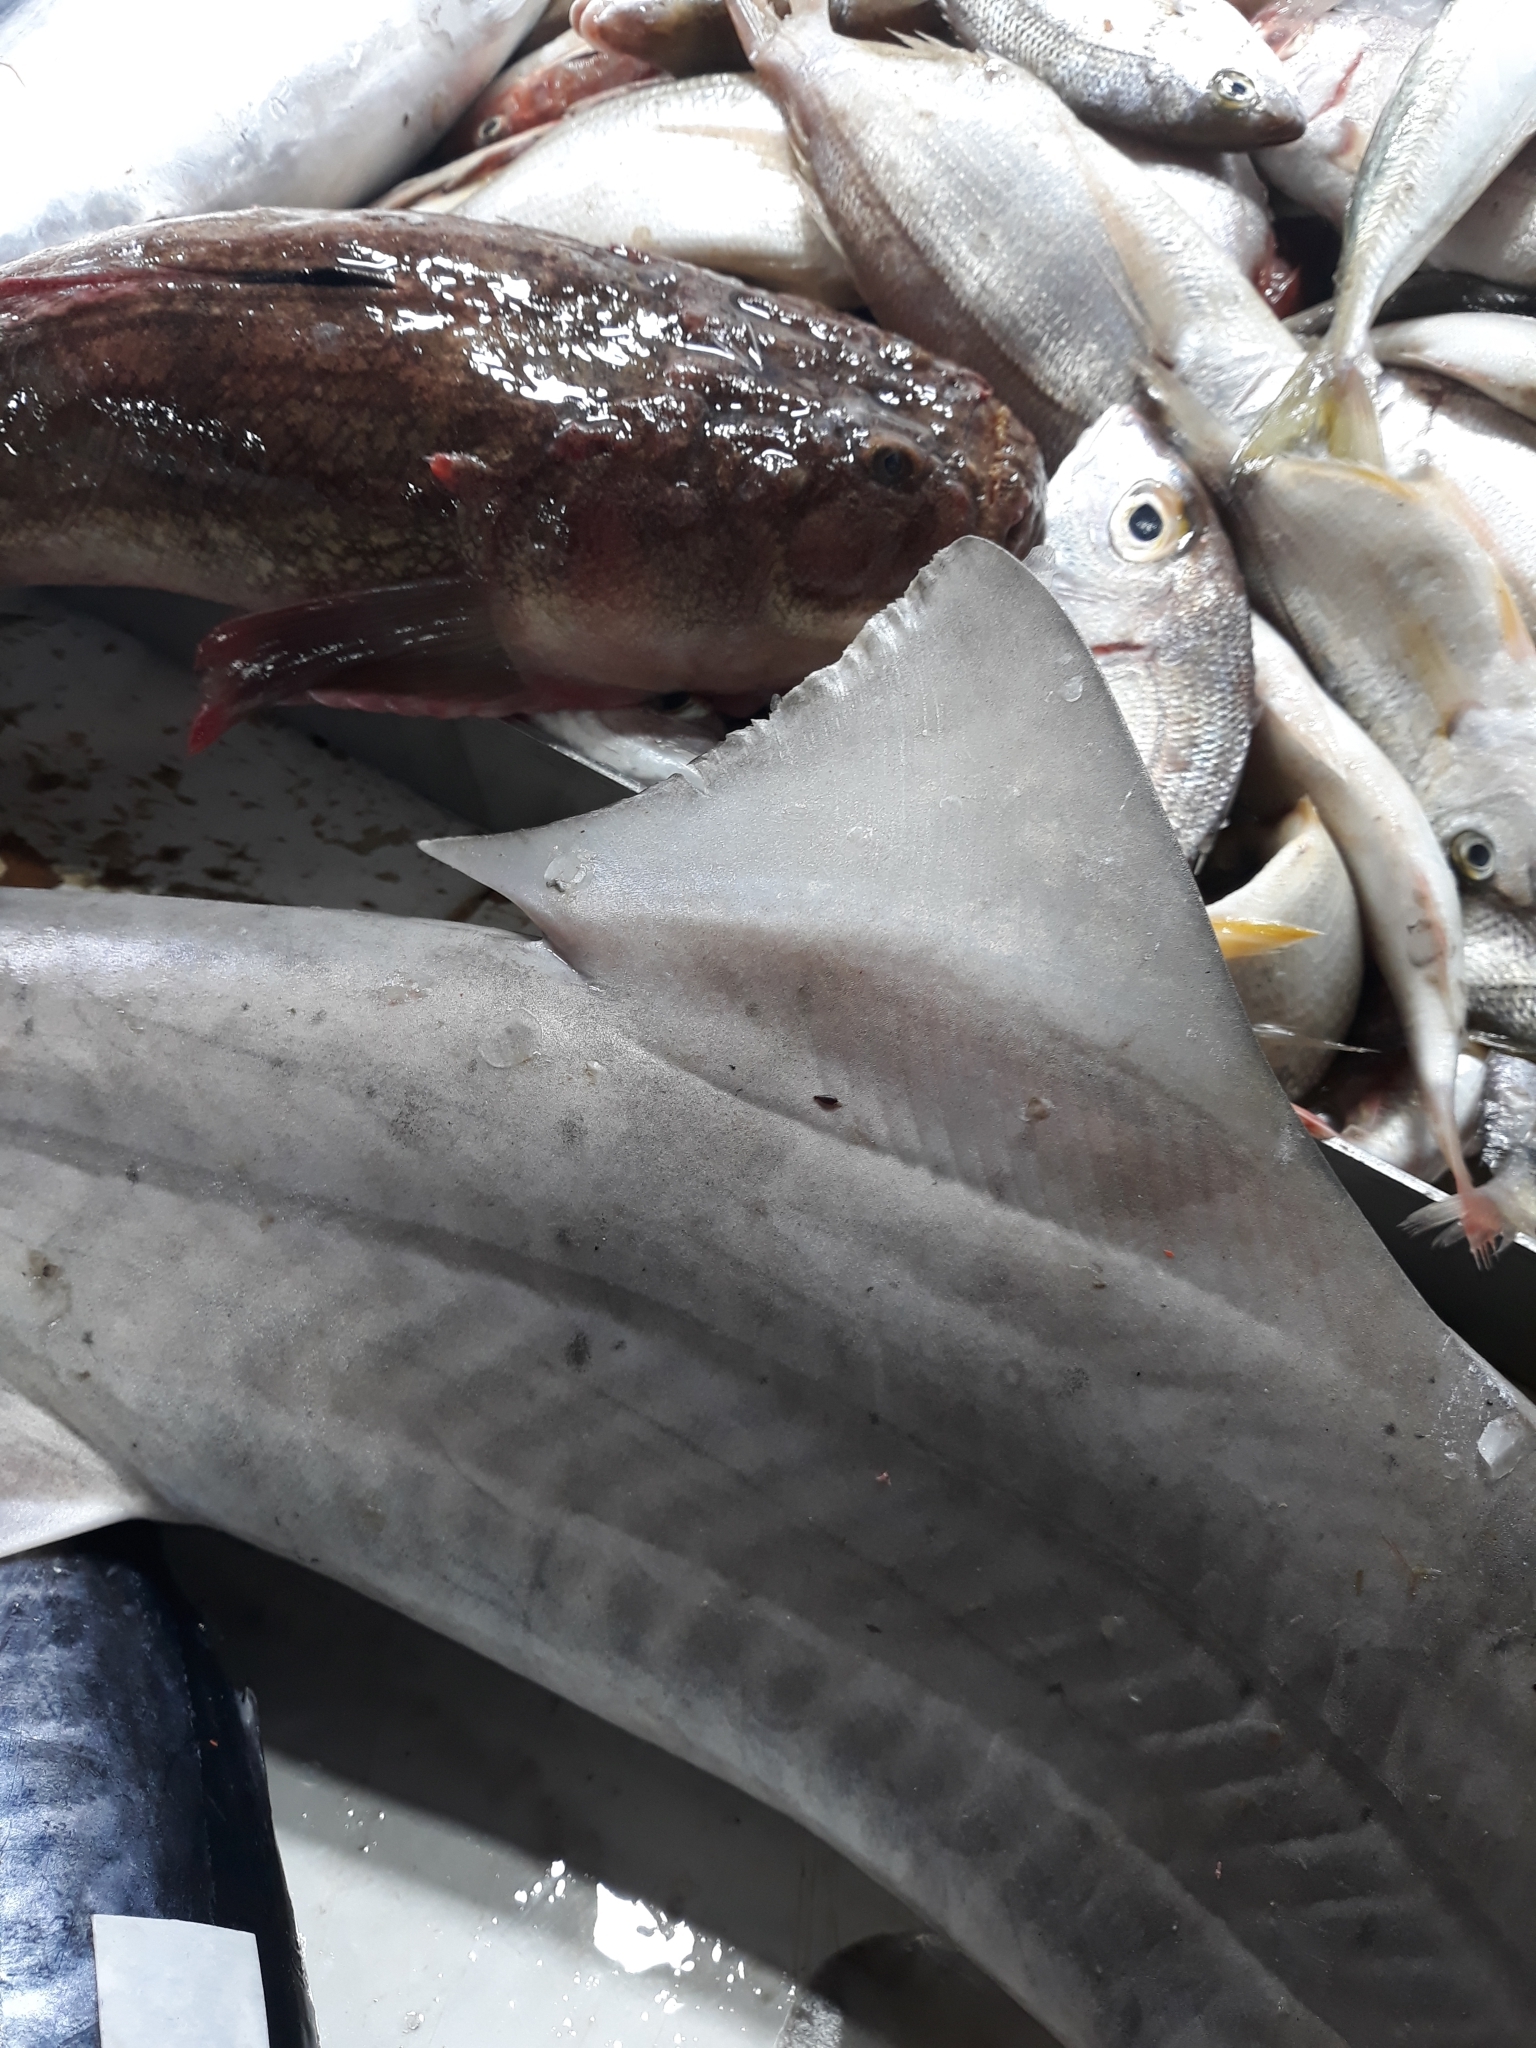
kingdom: Animalia
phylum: Chordata
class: Elasmobranchii
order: Carcharhiniformes
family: Triakidae
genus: Mustelus
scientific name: Mustelus mustelus
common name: Smooth-hound
